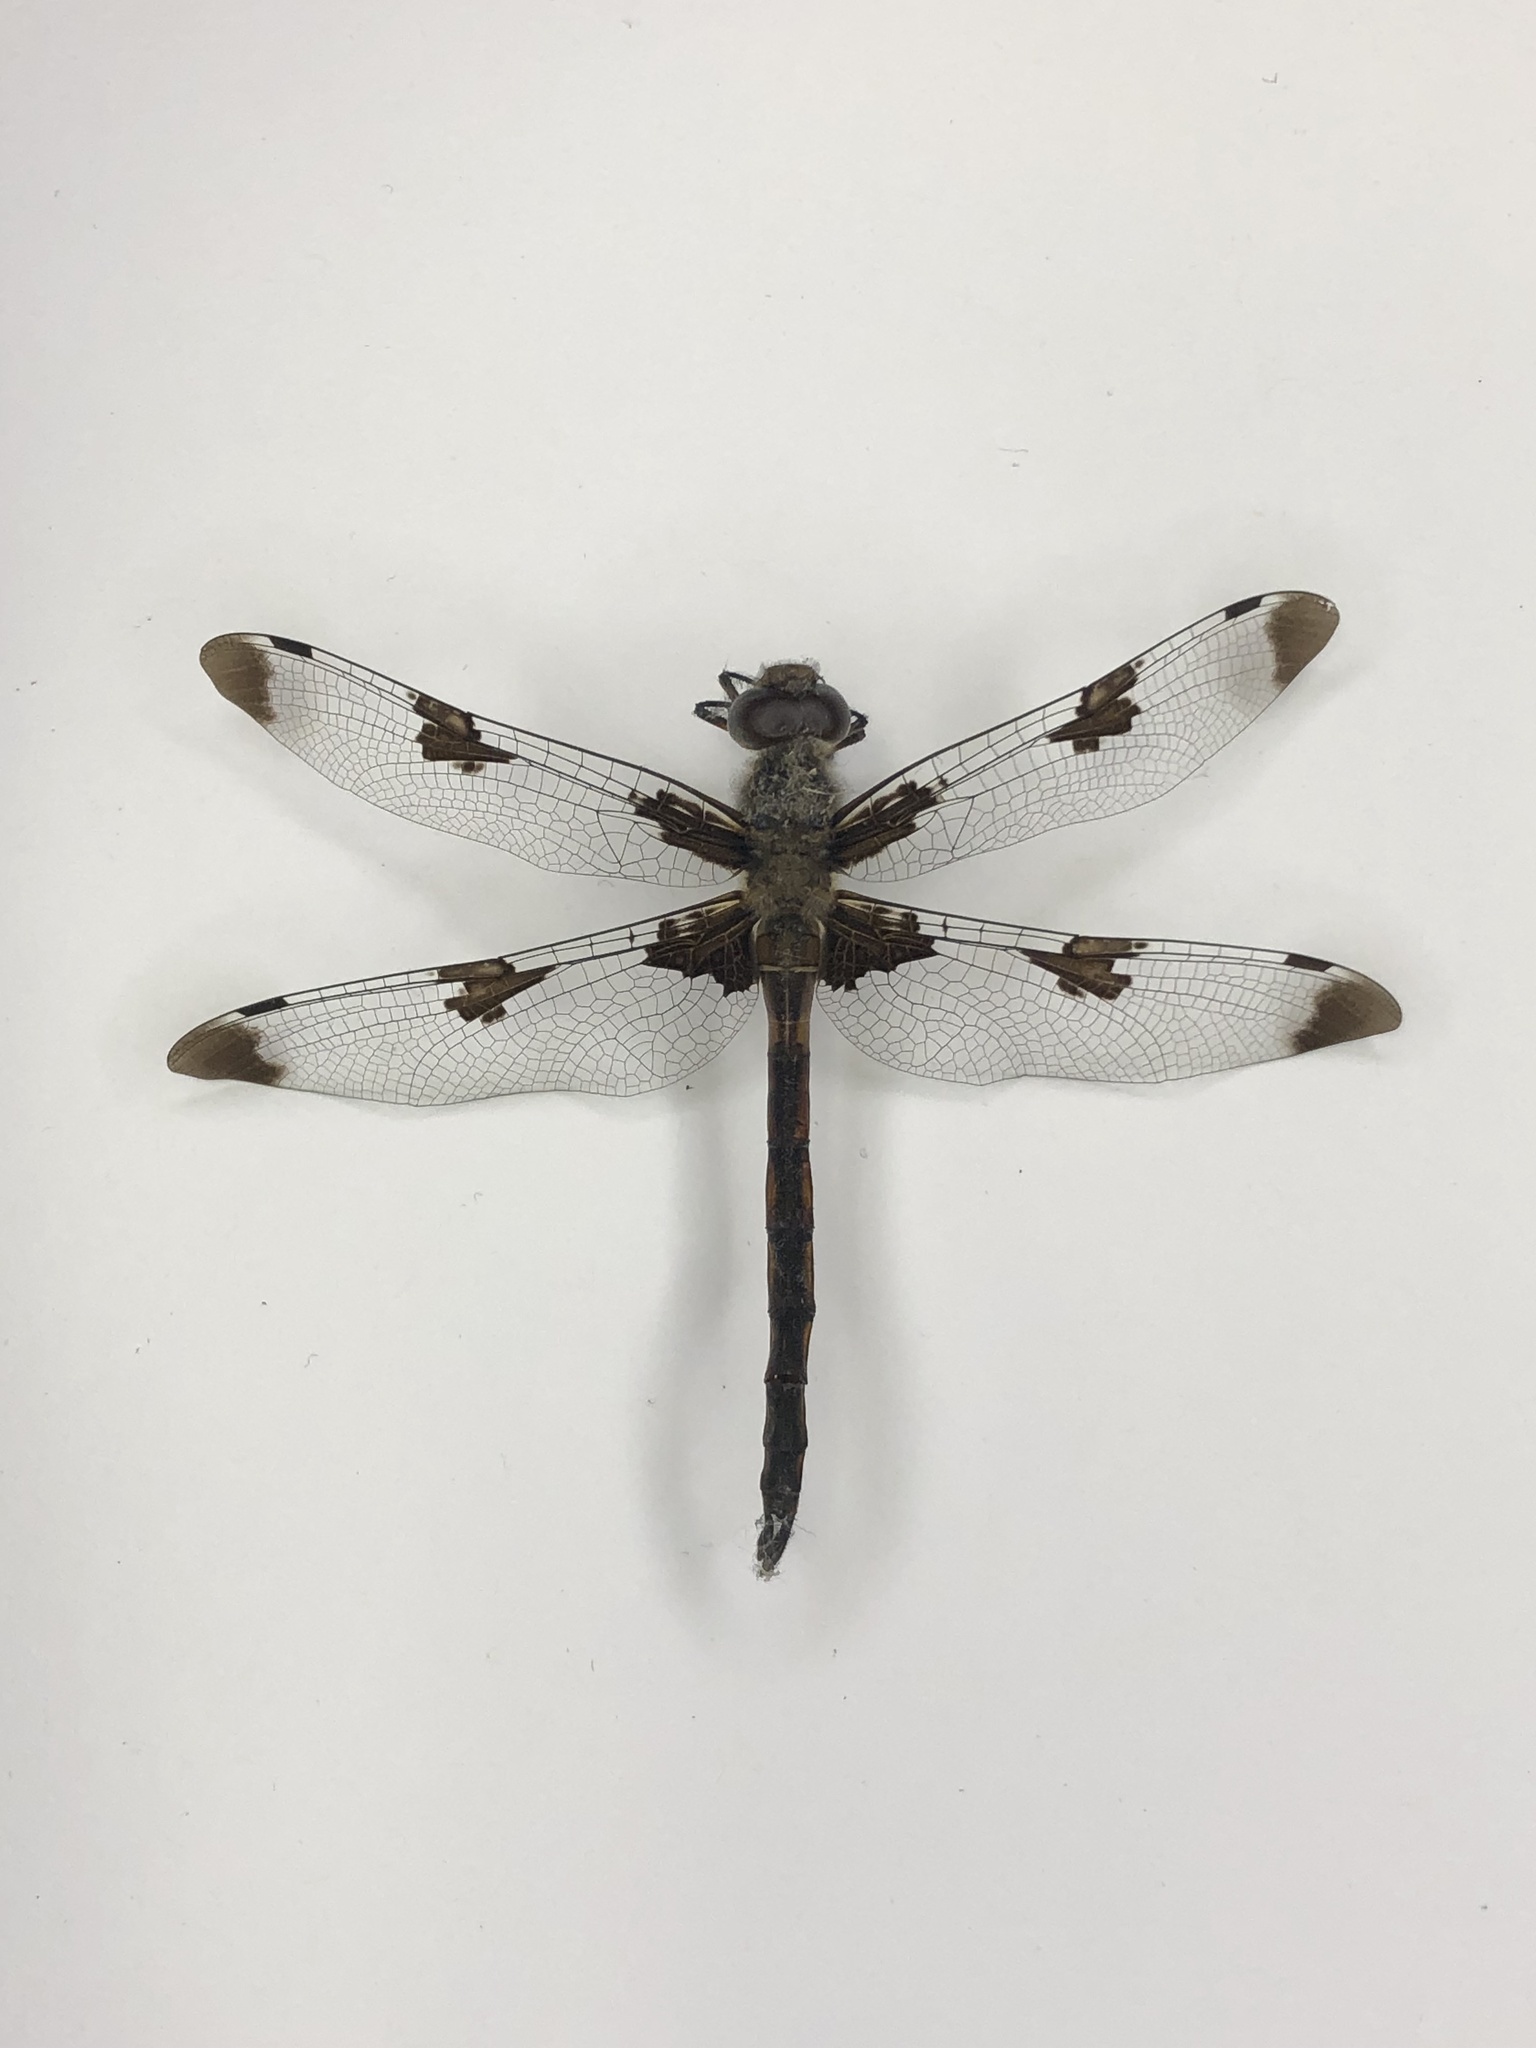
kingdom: Animalia
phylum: Arthropoda
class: Insecta
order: Odonata
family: Corduliidae
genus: Epitheca
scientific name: Epitheca princeps
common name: Prince baskettail
